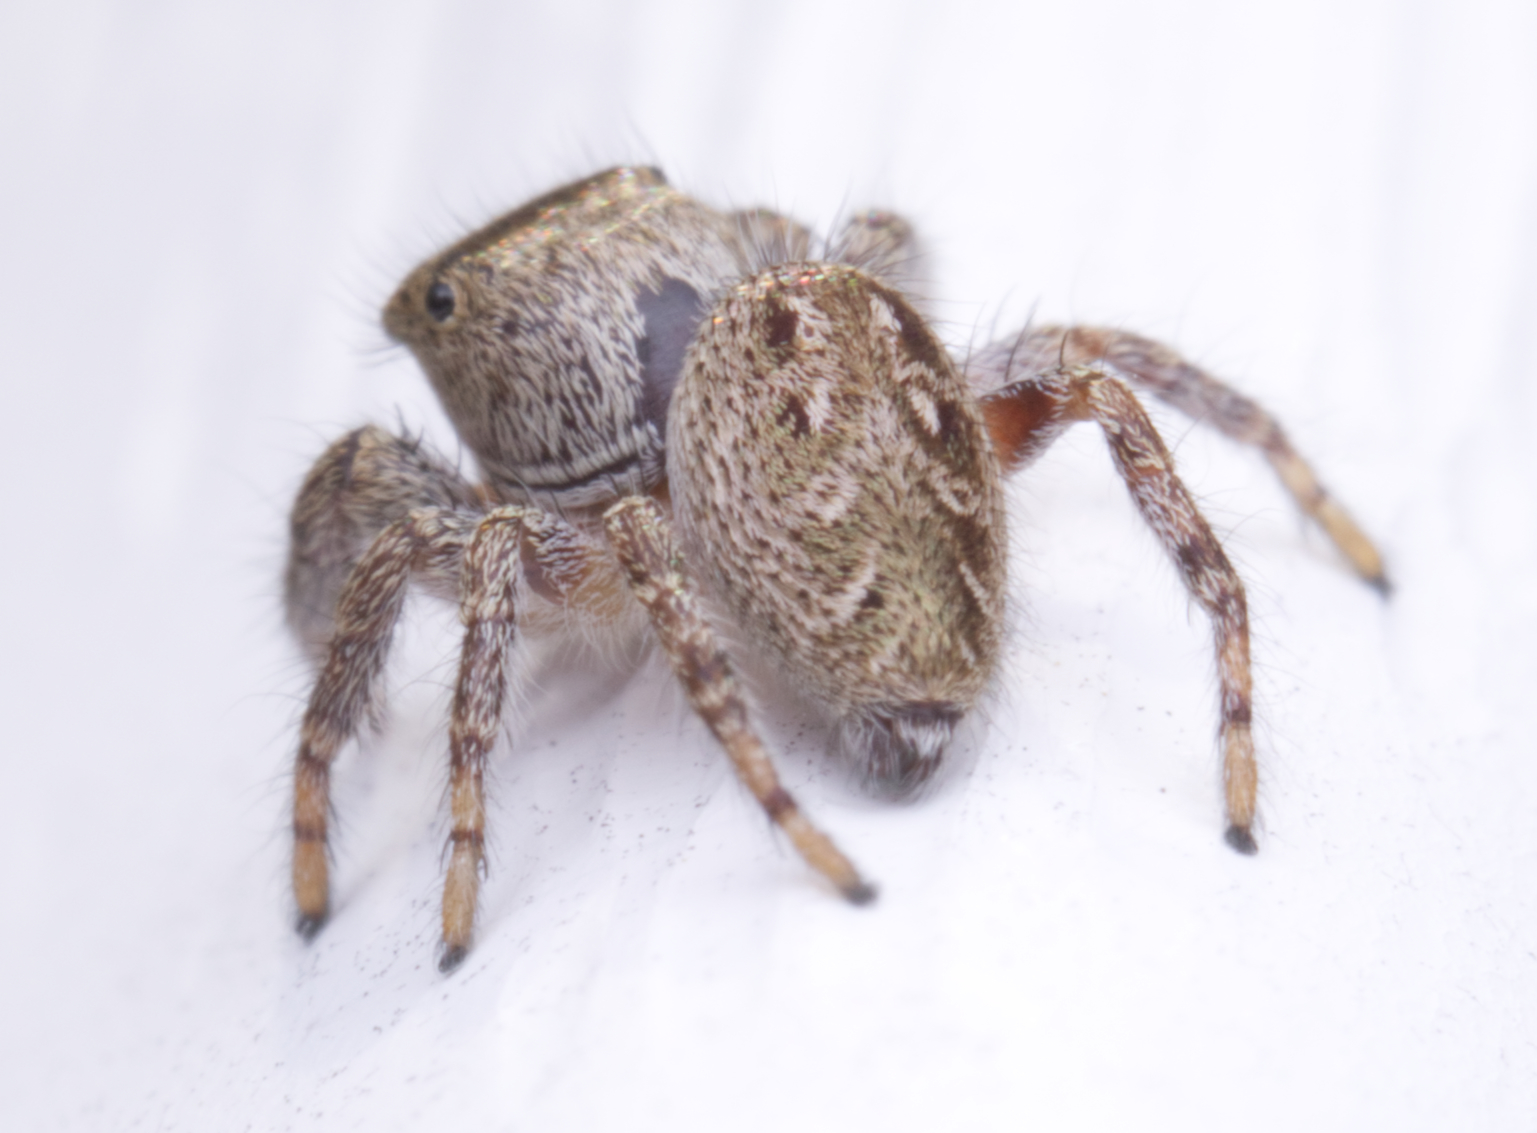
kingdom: Animalia
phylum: Arthropoda
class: Arachnida
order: Araneae
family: Salticidae
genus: Eris
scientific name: Eris militaris
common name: Bronze jumper
